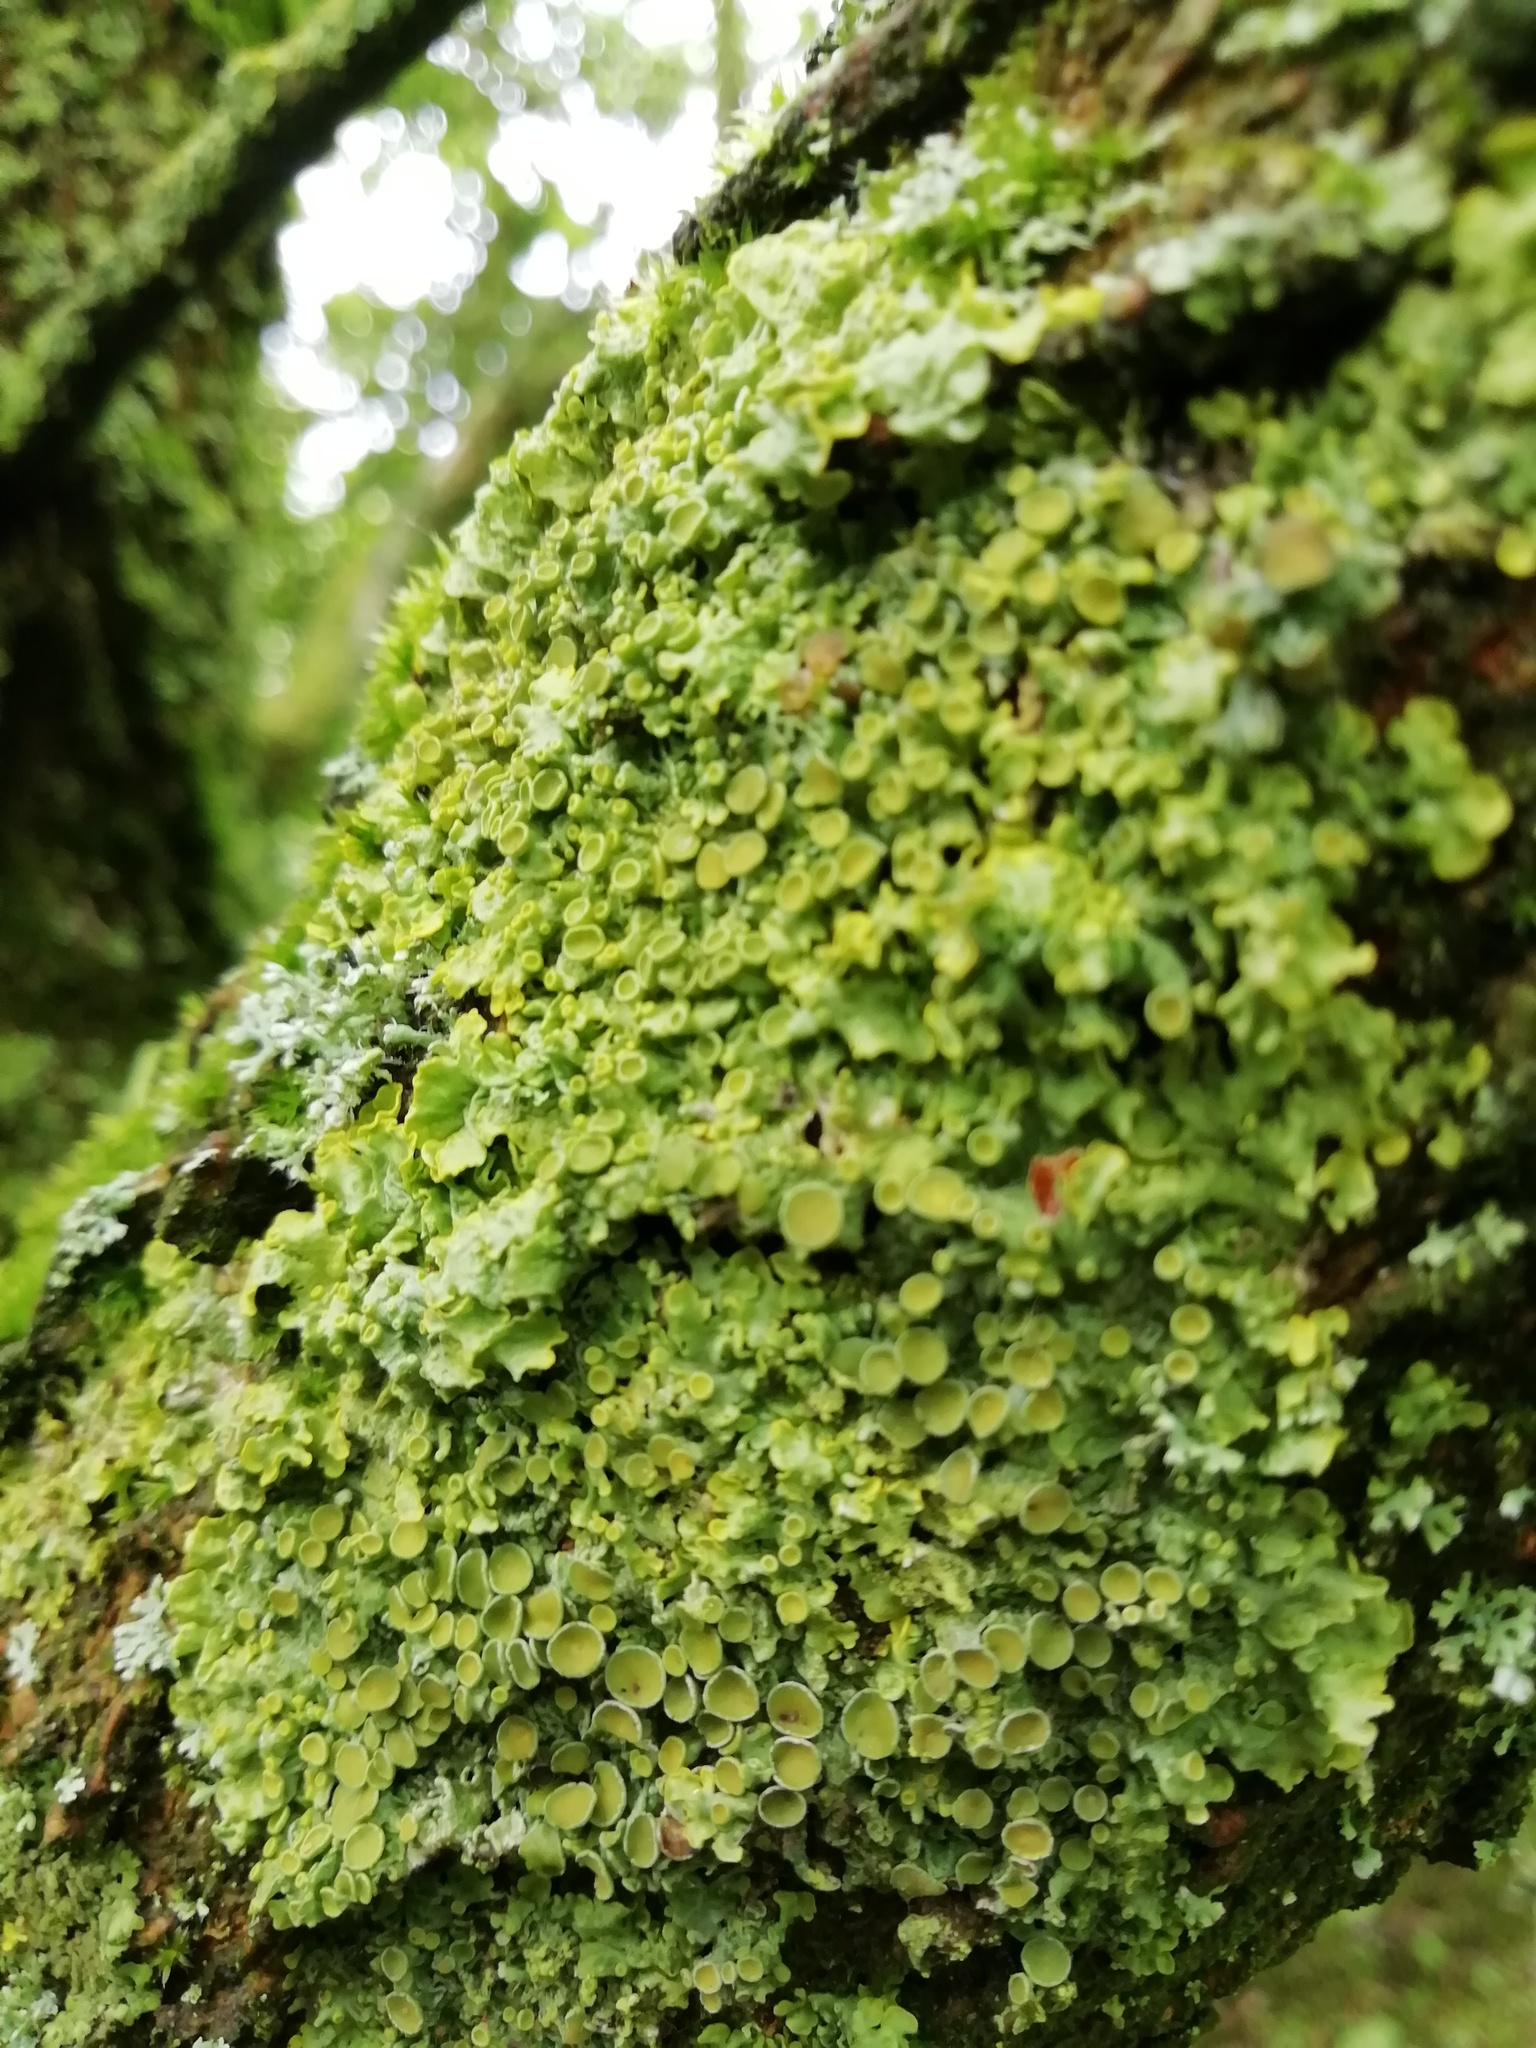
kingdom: Fungi
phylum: Ascomycota
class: Lecanoromycetes
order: Teloschistales
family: Teloschistaceae
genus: Xanthoria
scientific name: Xanthoria parietina
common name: Common orange lichen
